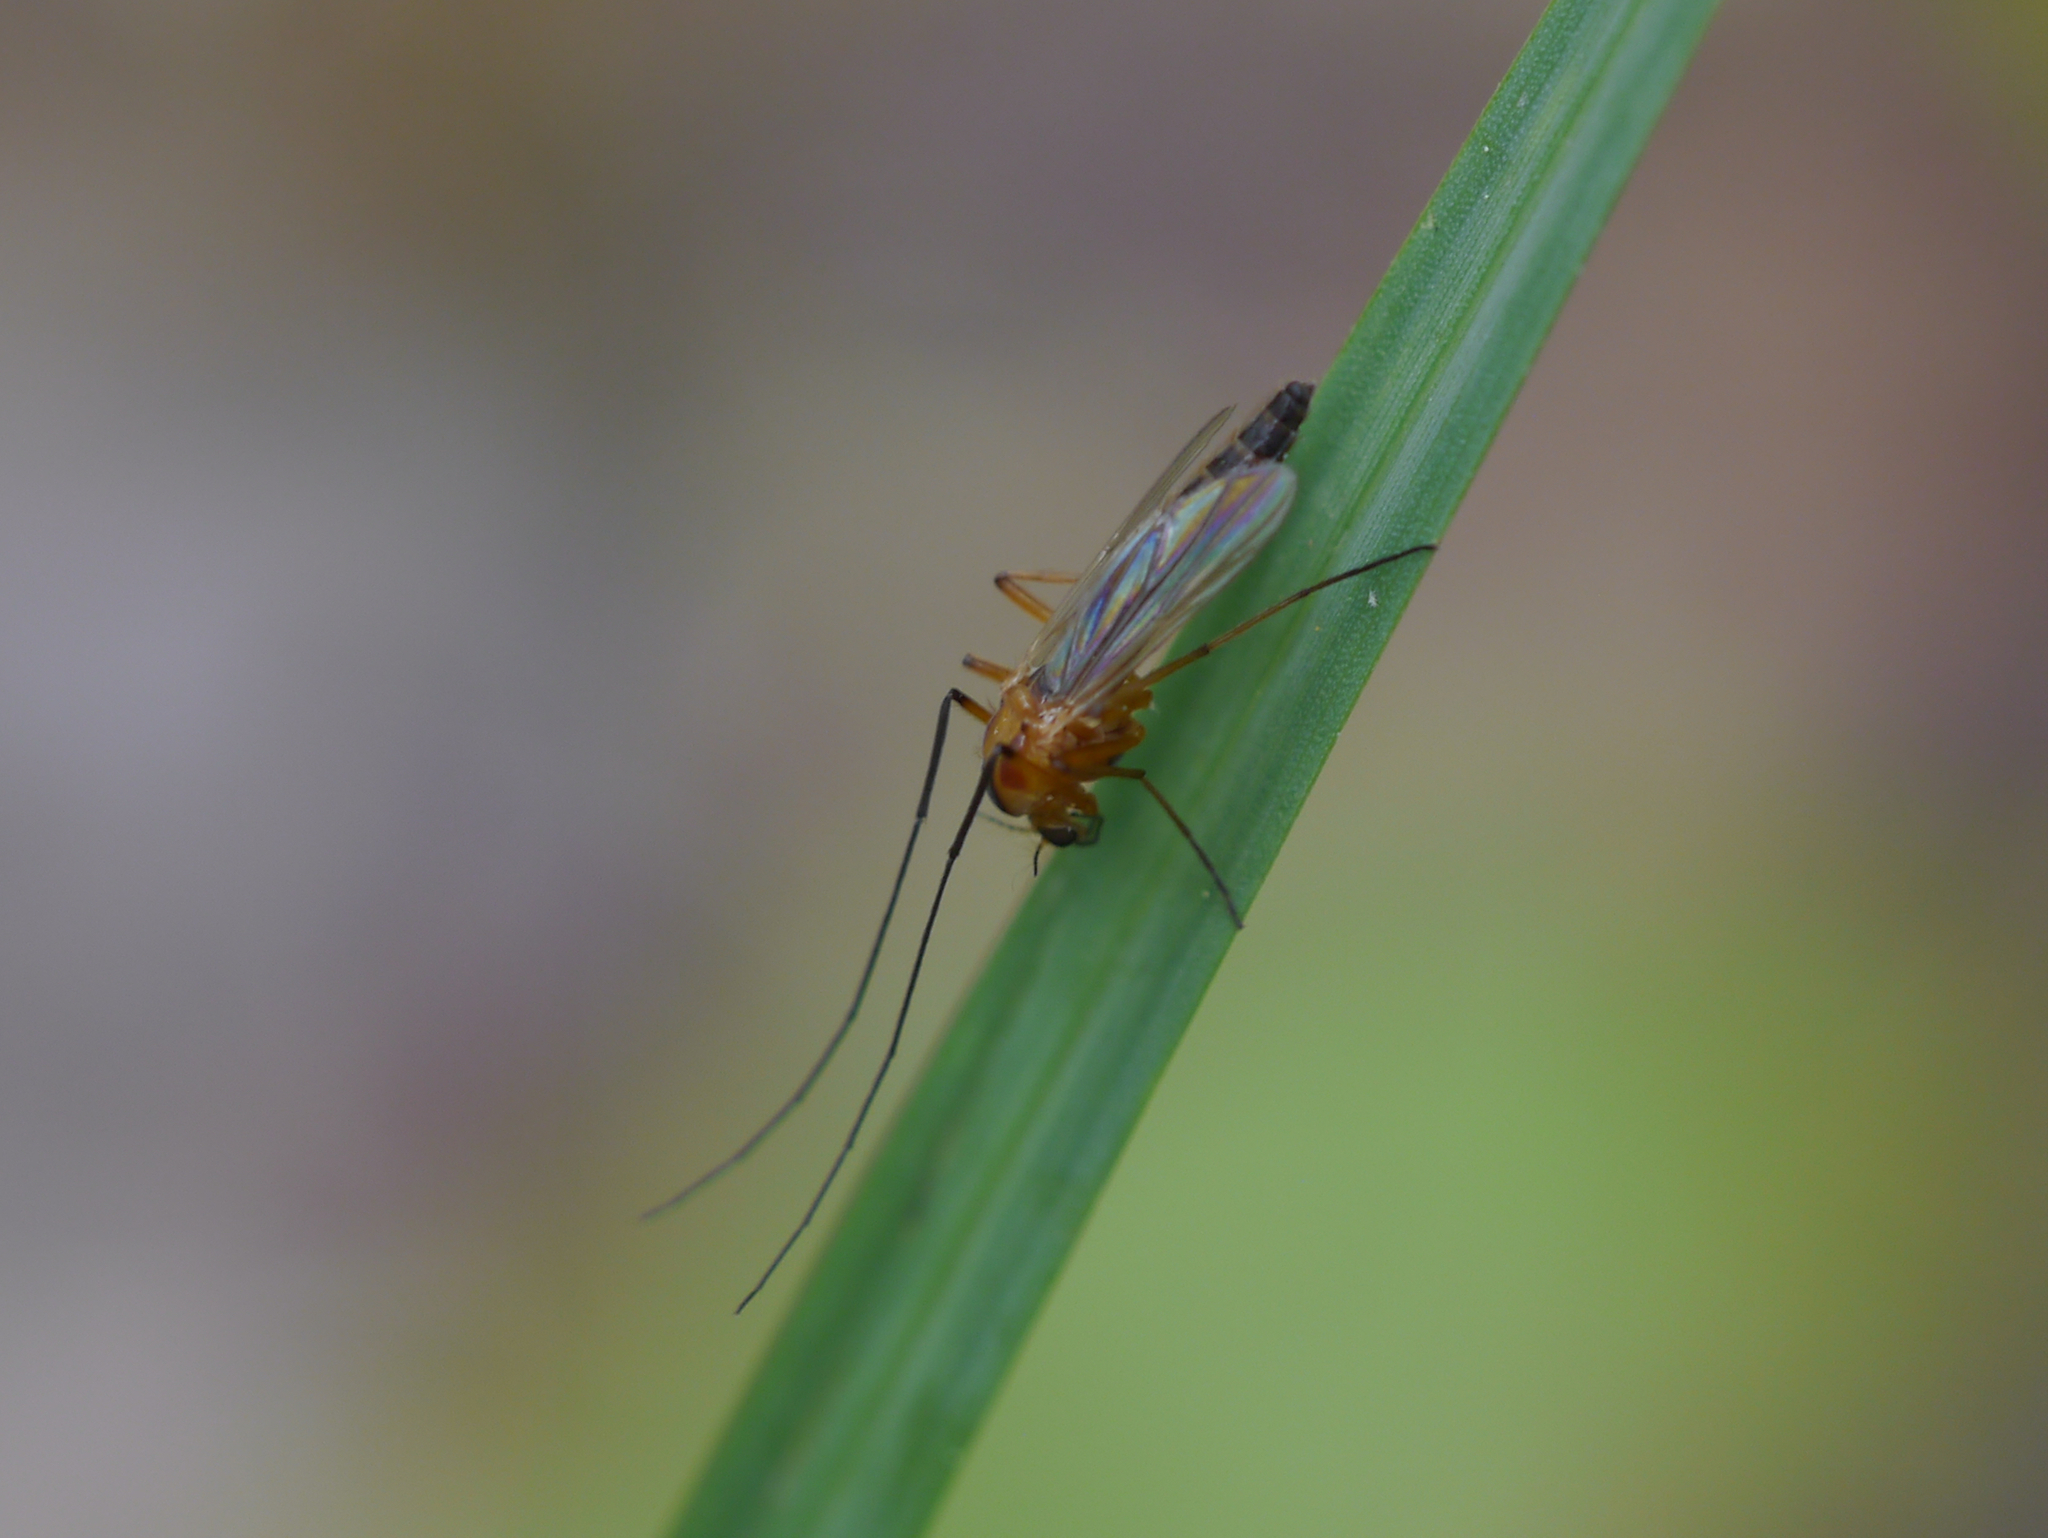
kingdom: Animalia
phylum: Arthropoda
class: Insecta
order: Diptera
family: Chironomidae
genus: Chironomus
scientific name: Chironomus ochreatus
